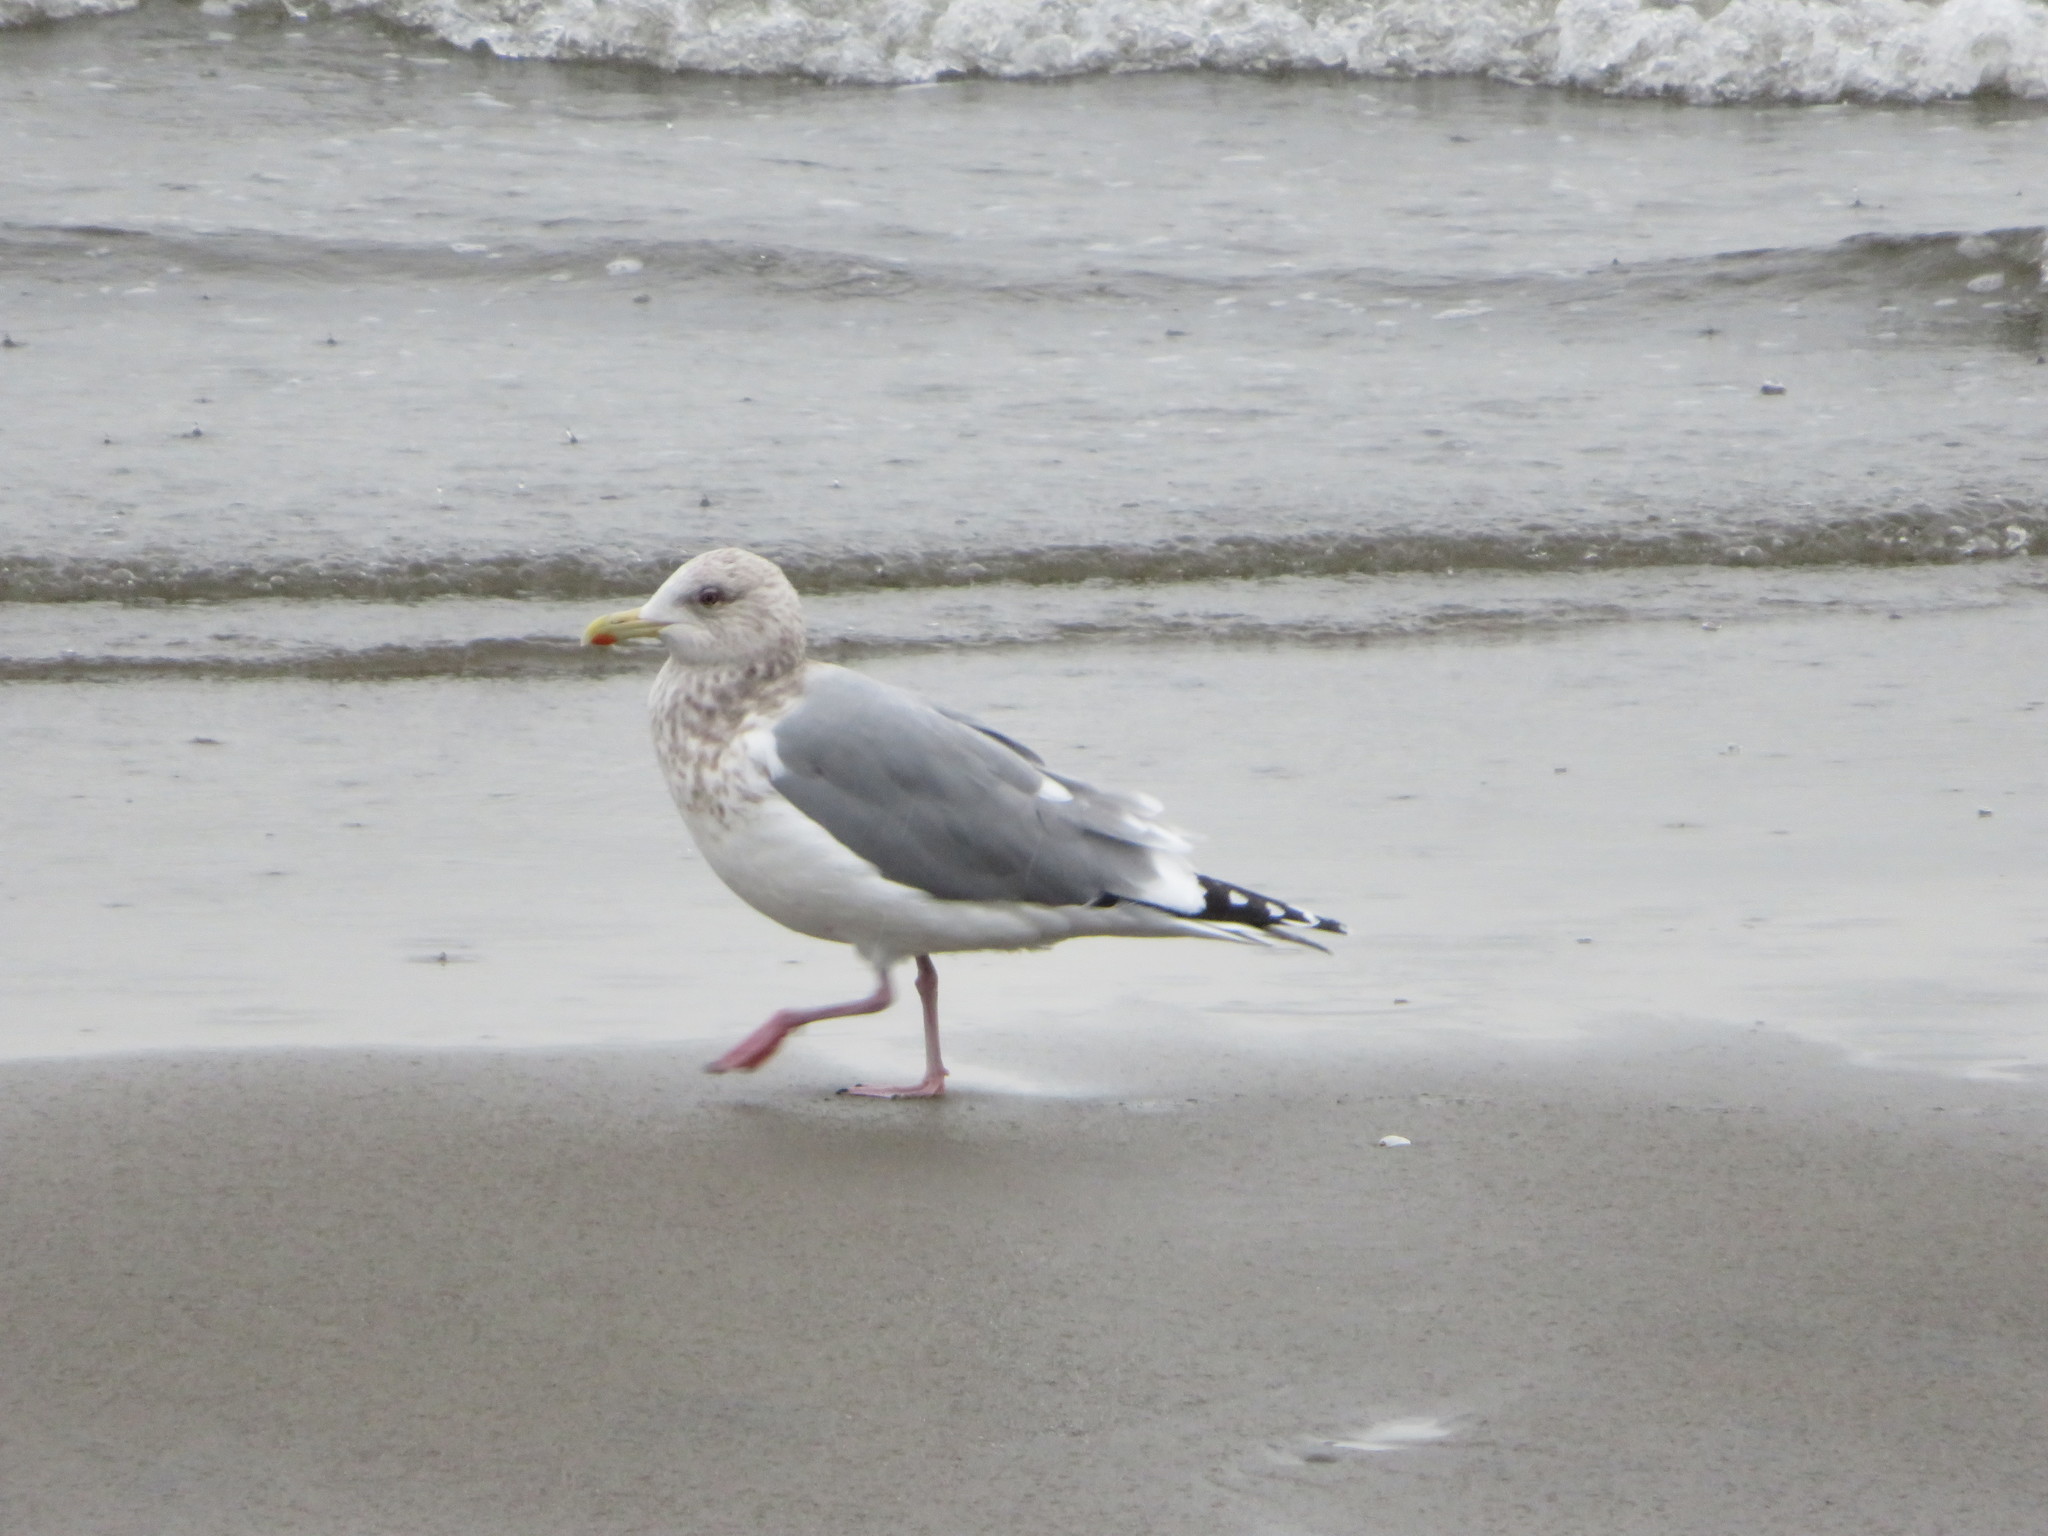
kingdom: Animalia
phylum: Chordata
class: Aves
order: Charadriiformes
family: Laridae
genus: Larus
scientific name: Larus argentatus
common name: Herring gull
